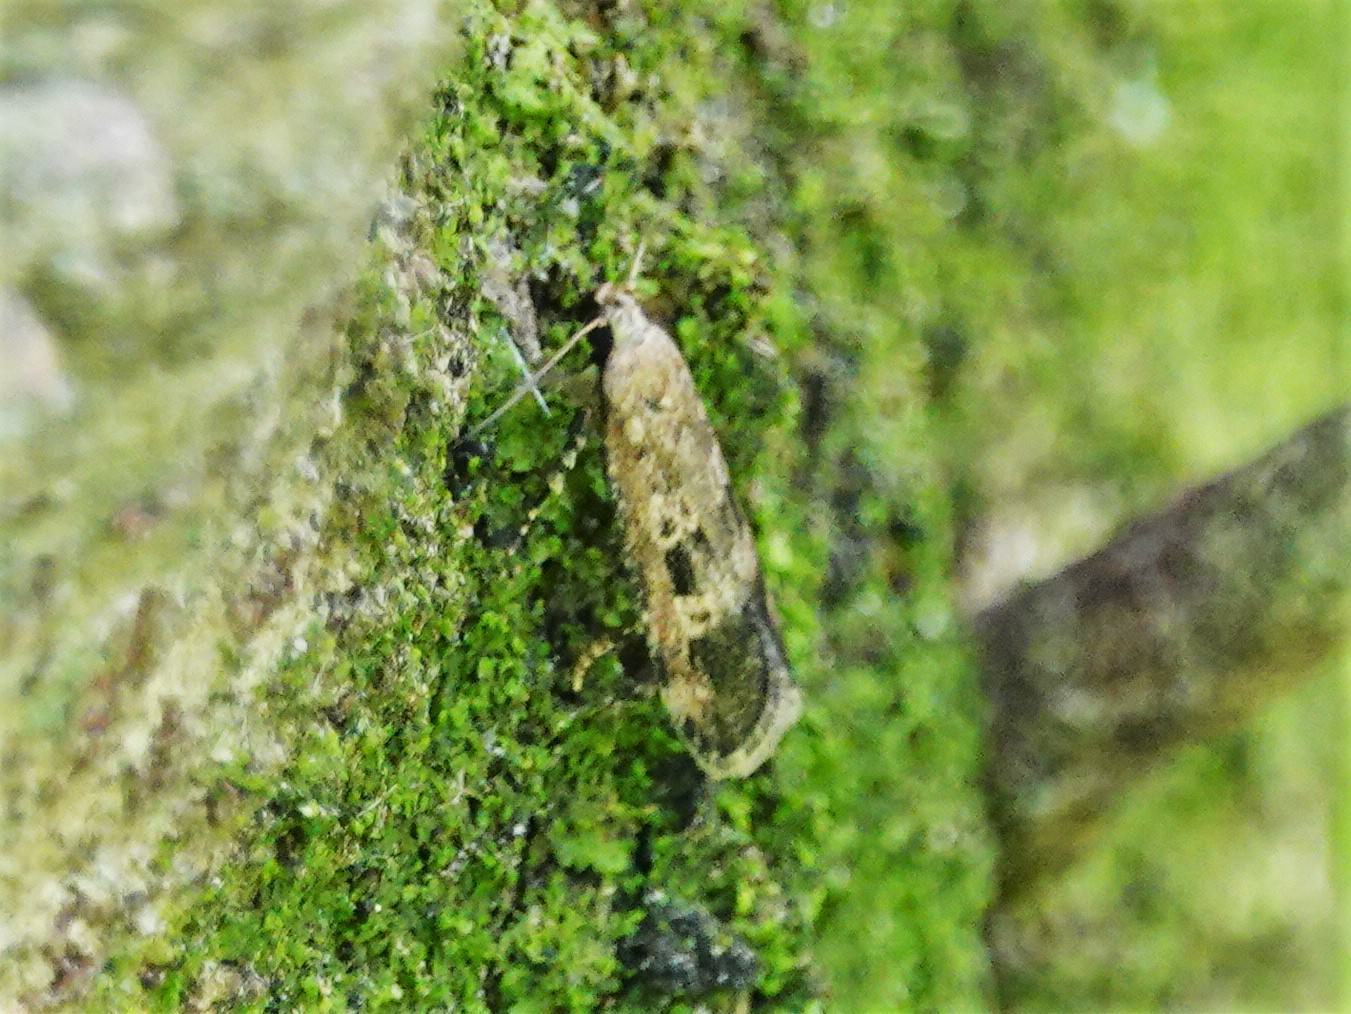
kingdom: Animalia
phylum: Arthropoda
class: Insecta
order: Lepidoptera
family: Gelechiidae
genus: Anisoplaca
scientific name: Anisoplaca cosmia
